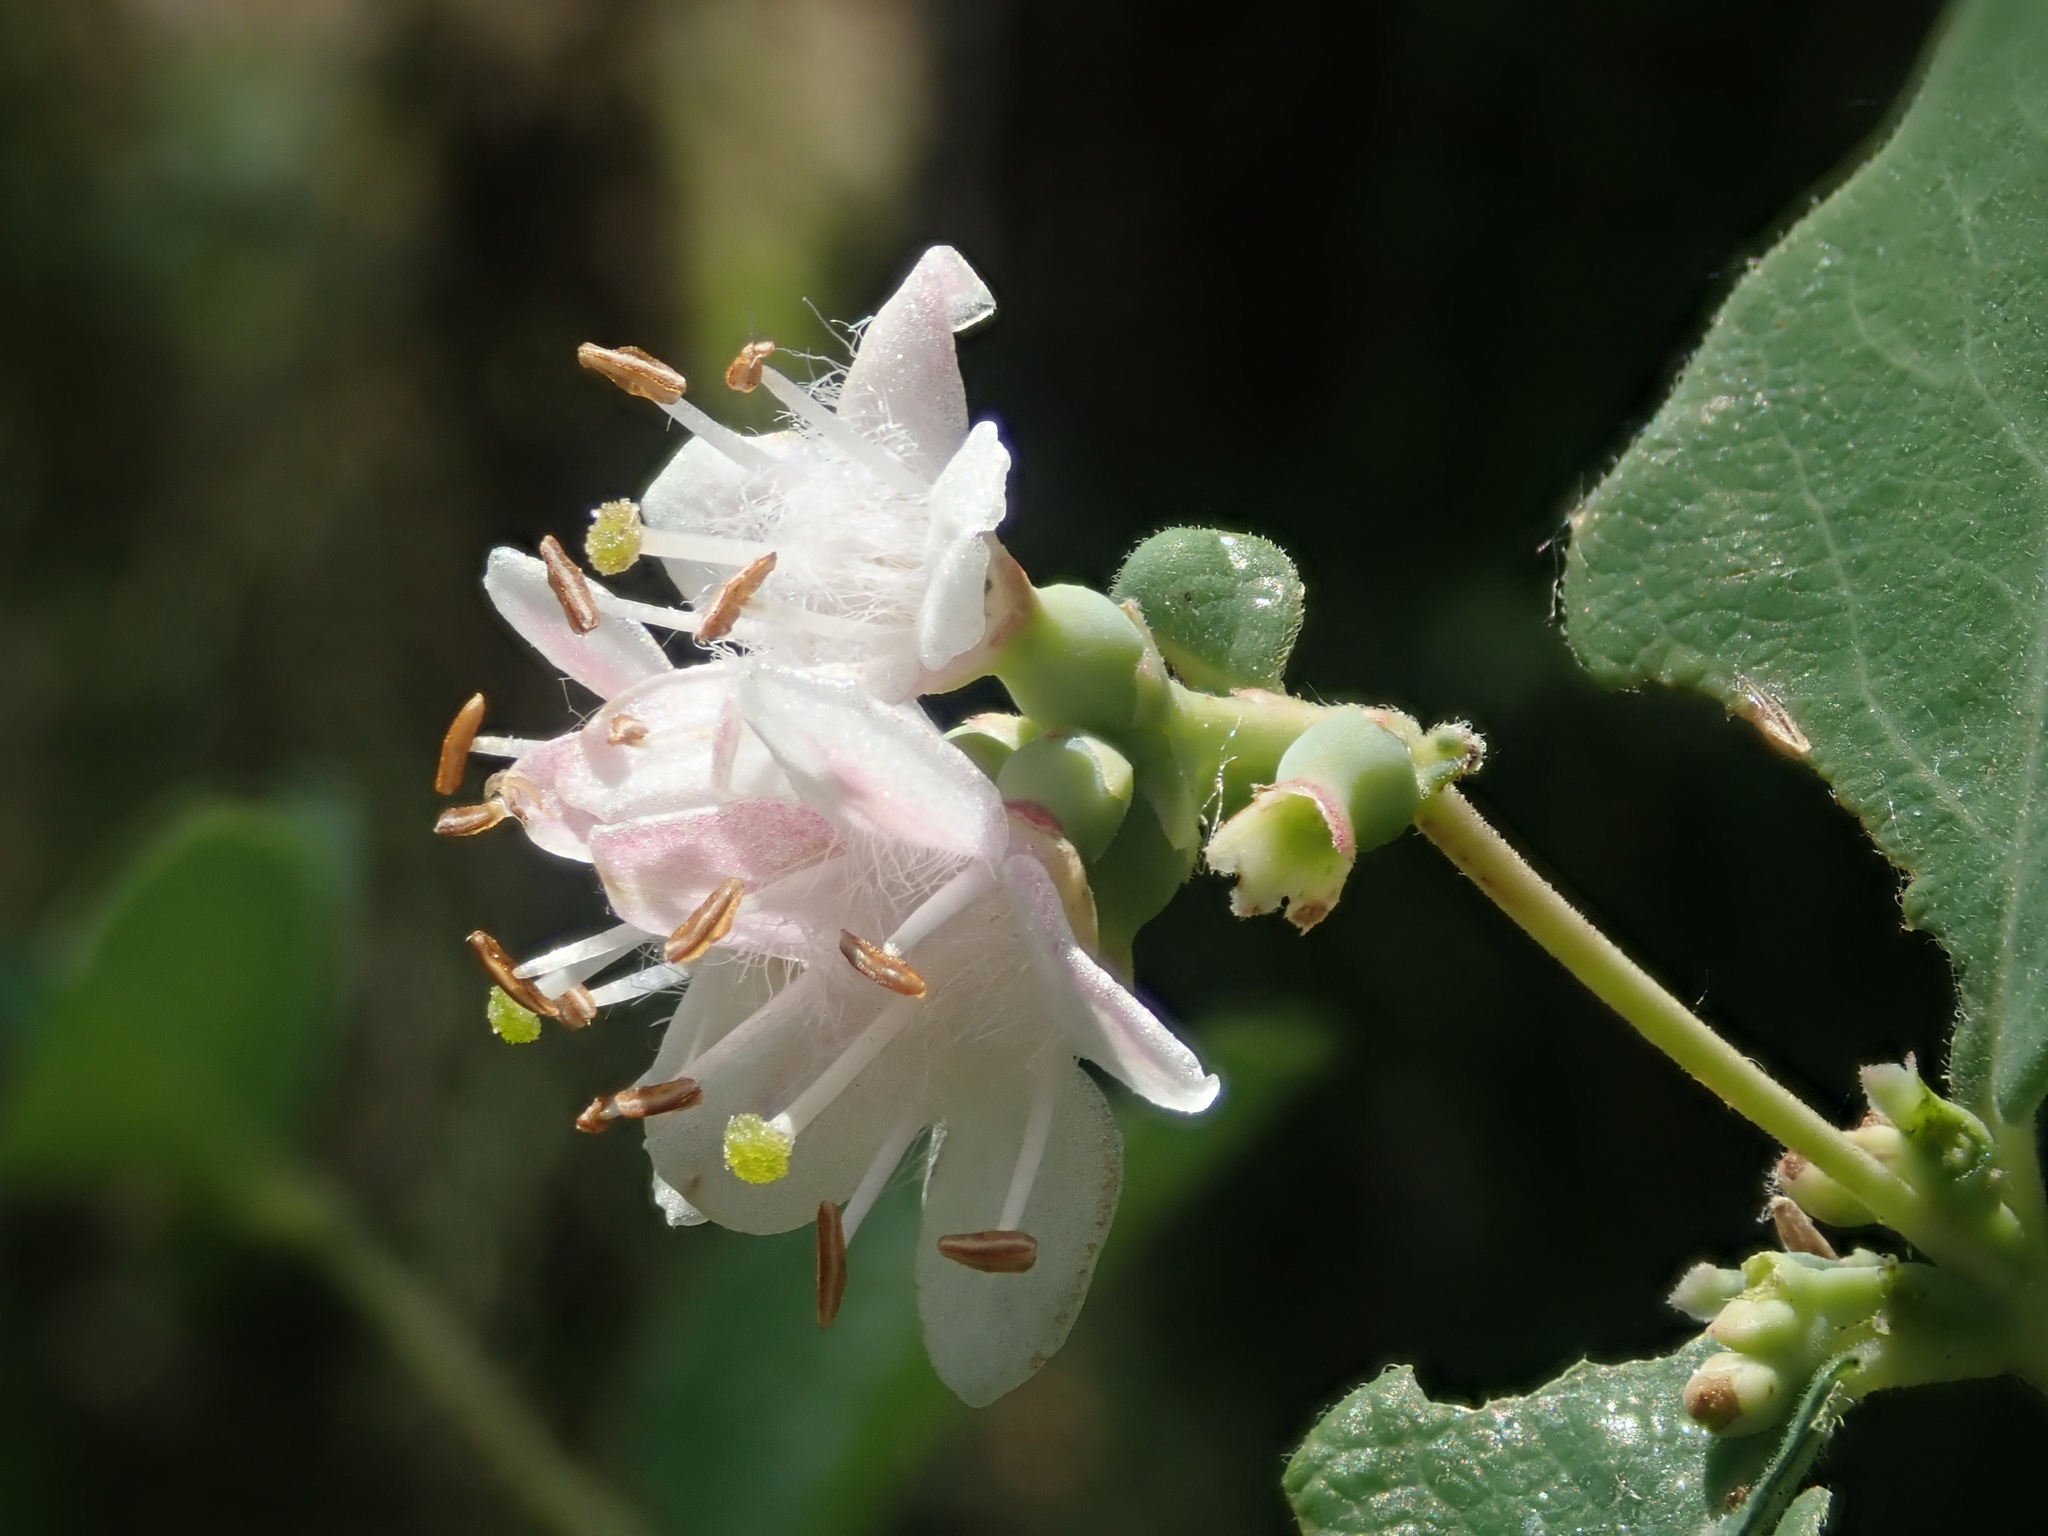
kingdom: Plantae
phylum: Tracheophyta
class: Magnoliopsida
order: Dipsacales
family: Caprifoliaceae
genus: Symphoricarpos
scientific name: Symphoricarpos occidentalis
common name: Wolfberry
